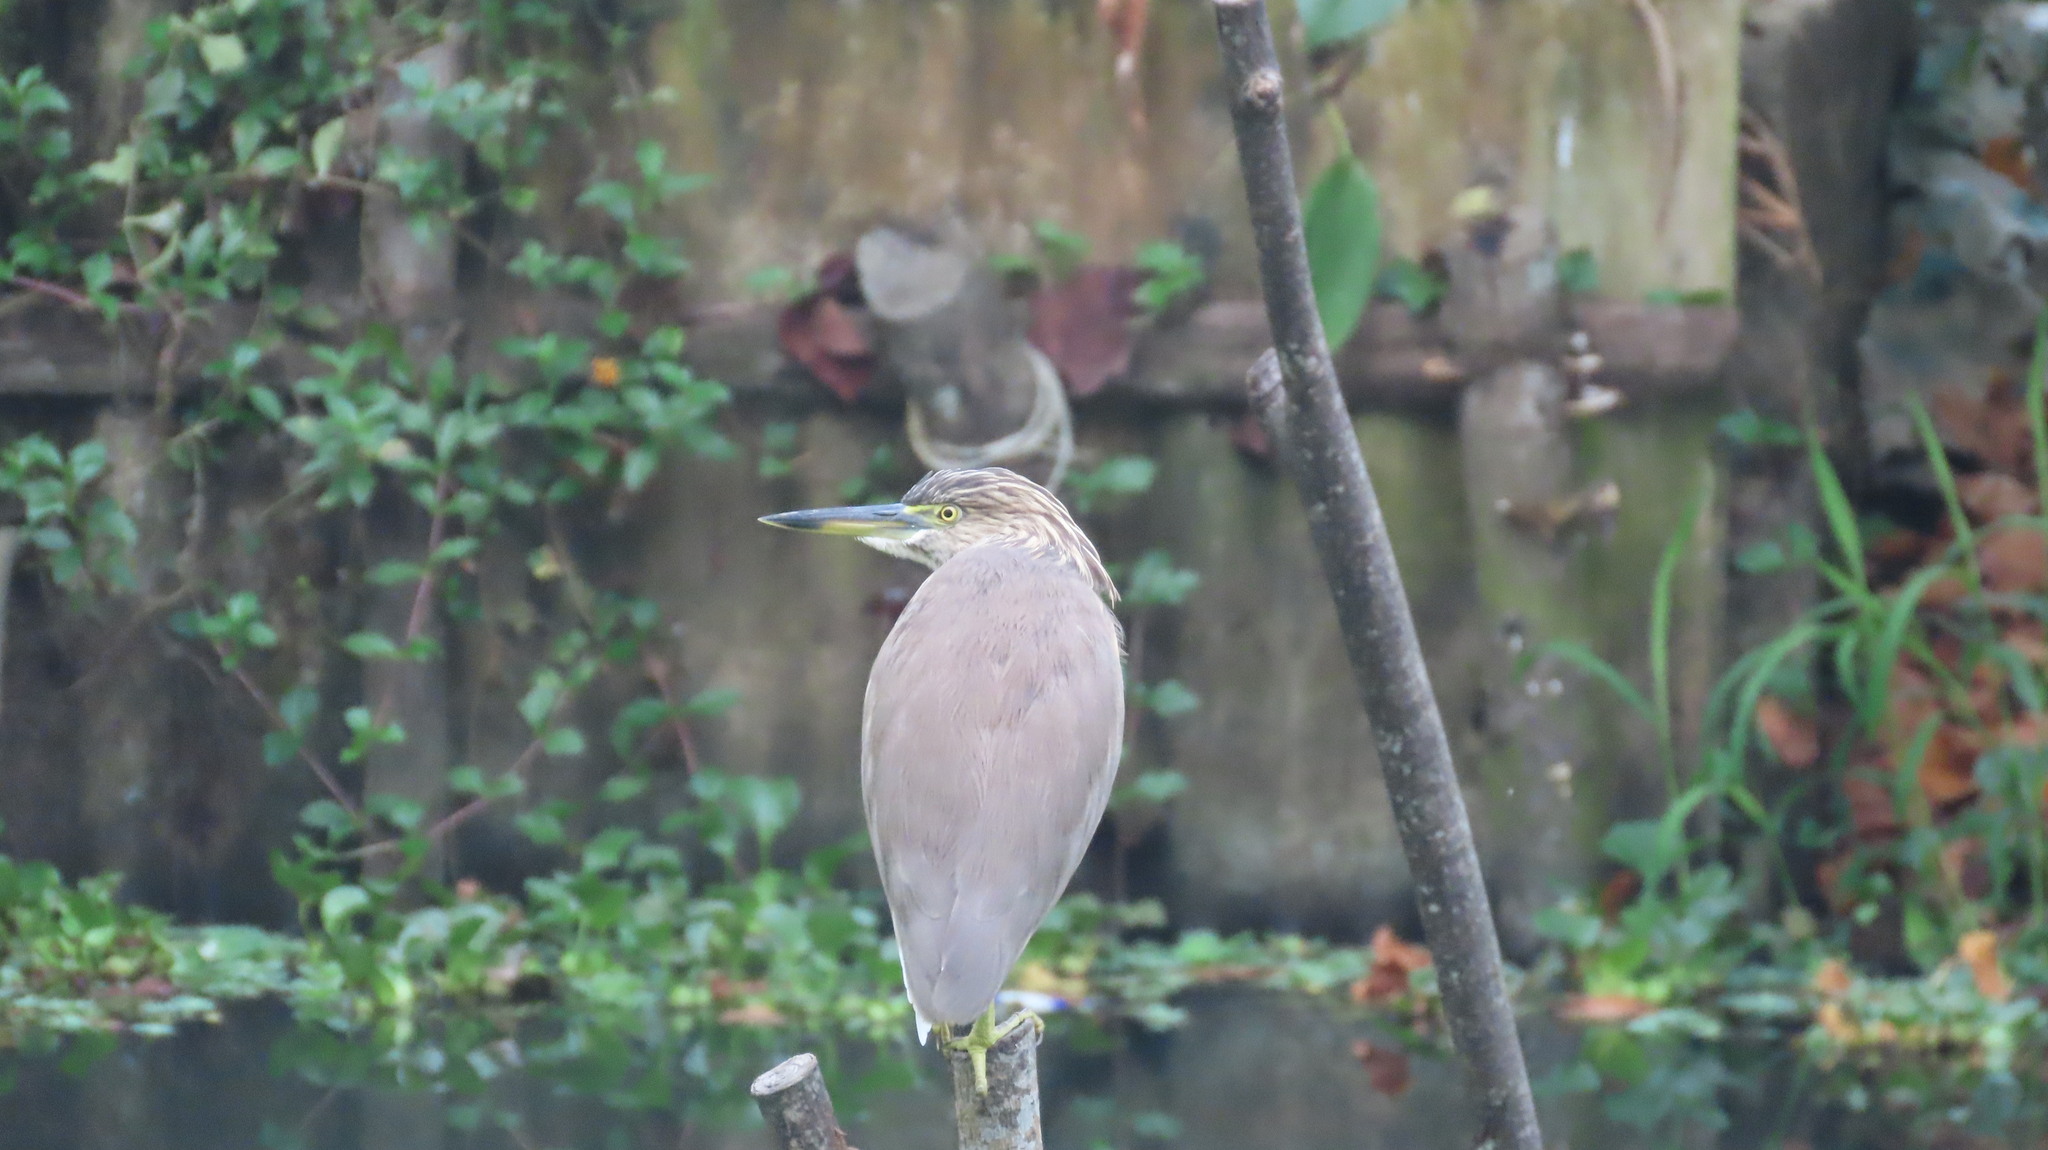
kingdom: Animalia
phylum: Chordata
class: Aves
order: Pelecaniformes
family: Ardeidae
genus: Ardeola
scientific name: Ardeola grayii
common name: Indian pond heron
